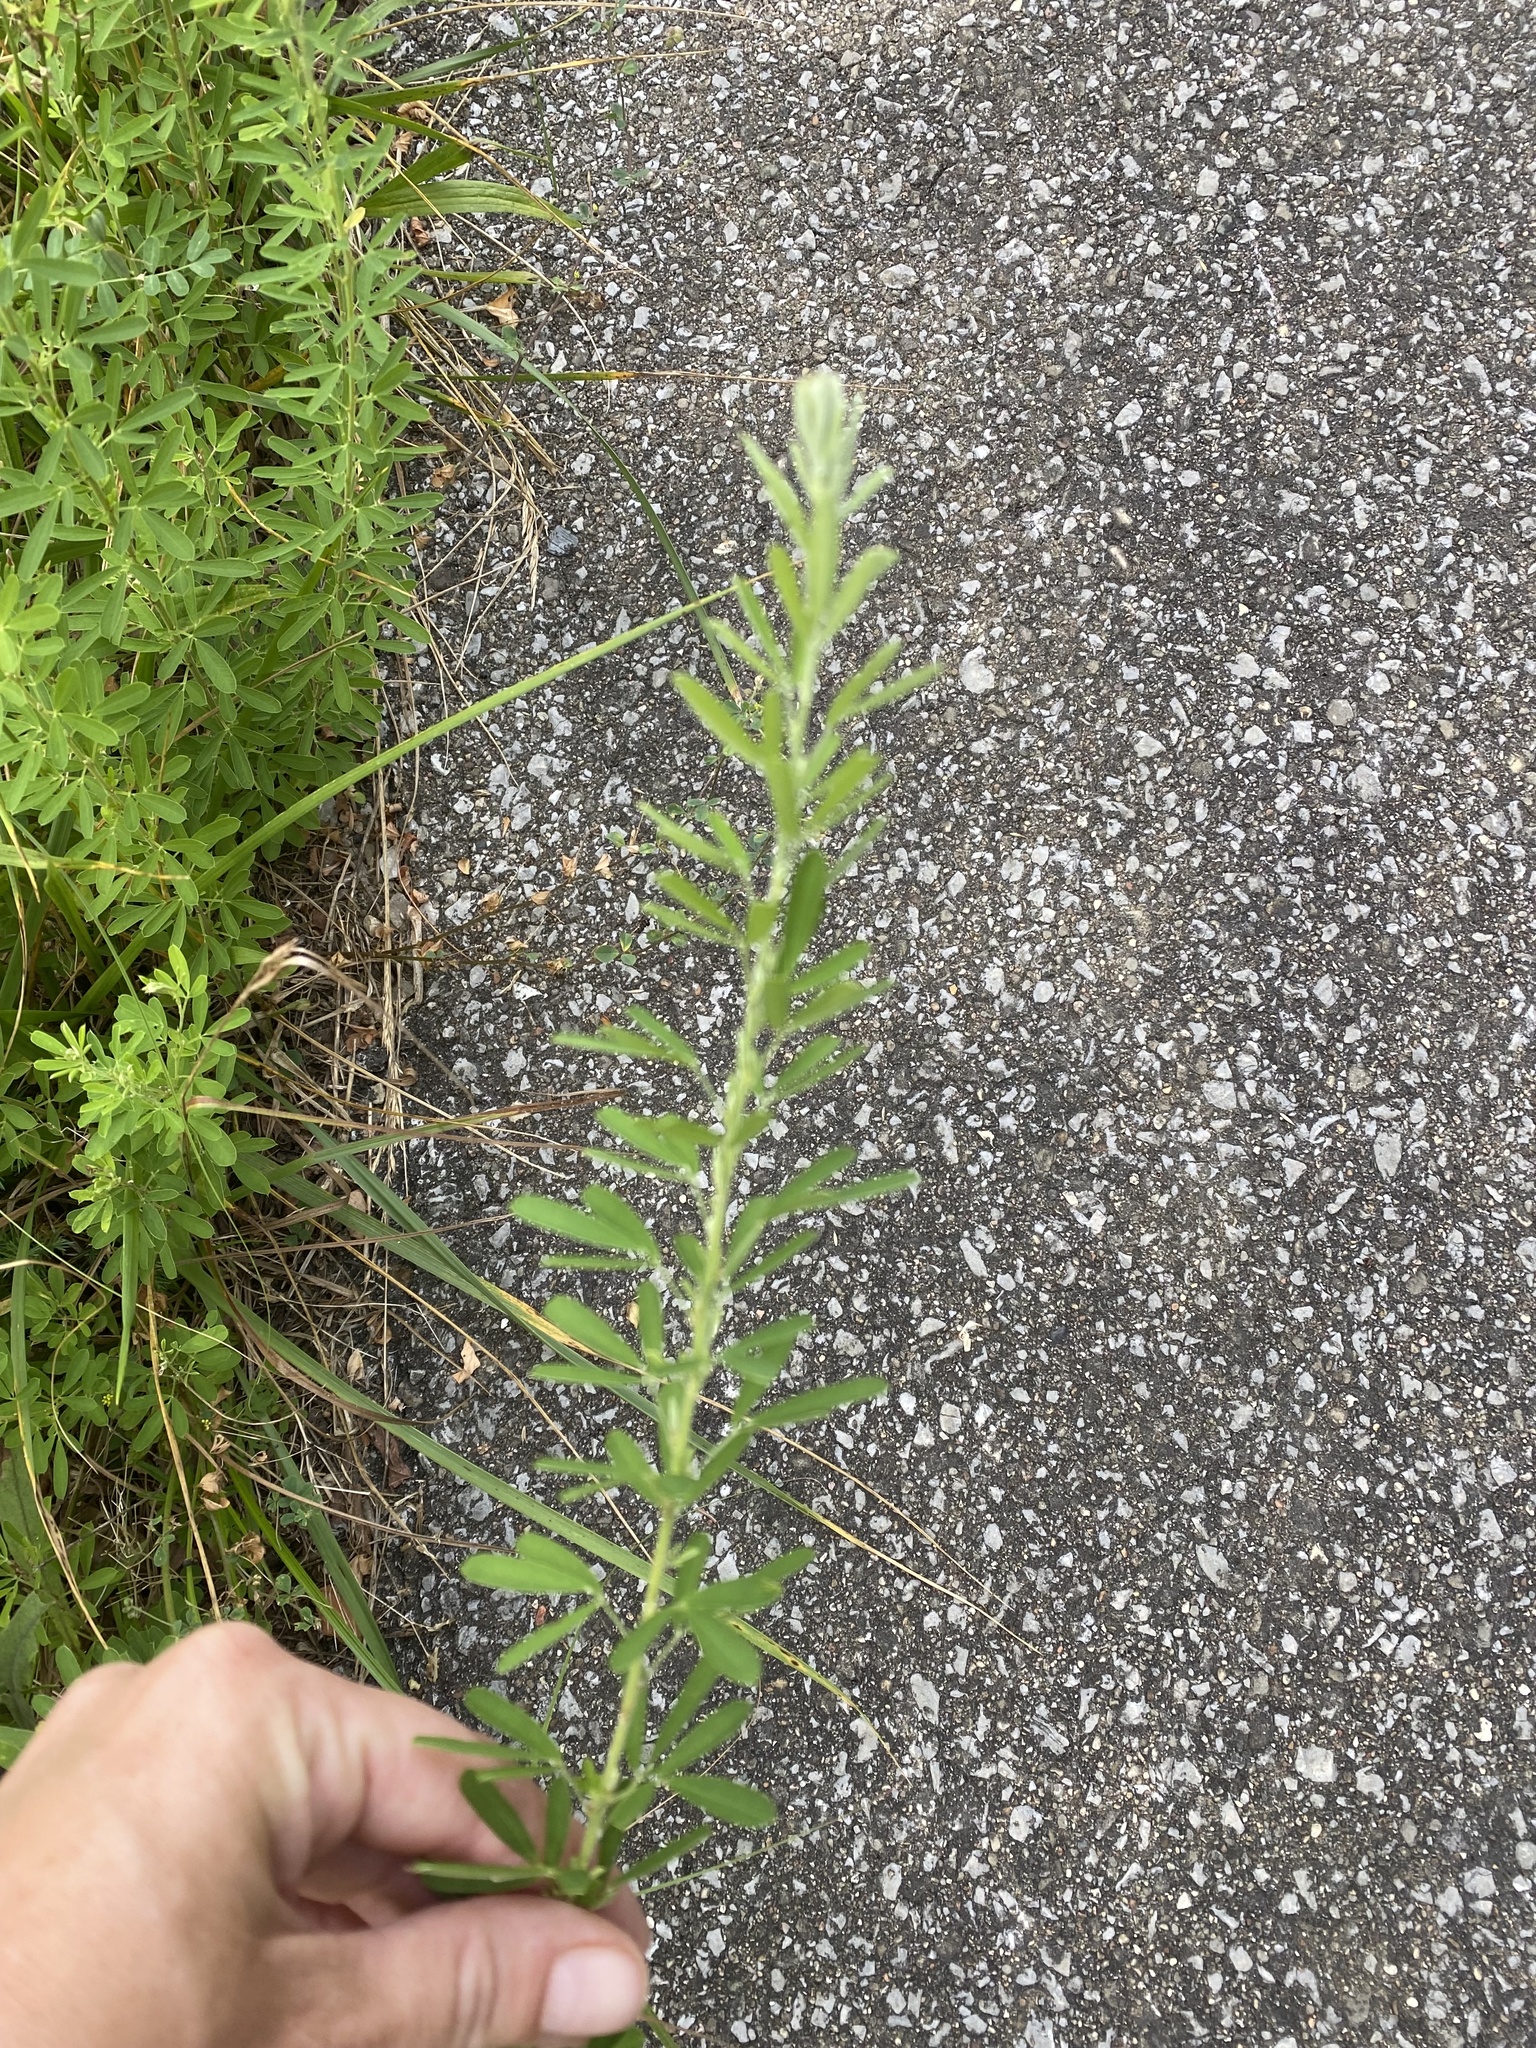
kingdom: Plantae
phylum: Tracheophyta
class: Magnoliopsida
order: Fabales
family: Fabaceae
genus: Lespedeza
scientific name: Lespedeza cuneata
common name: Chinese bush-clover
